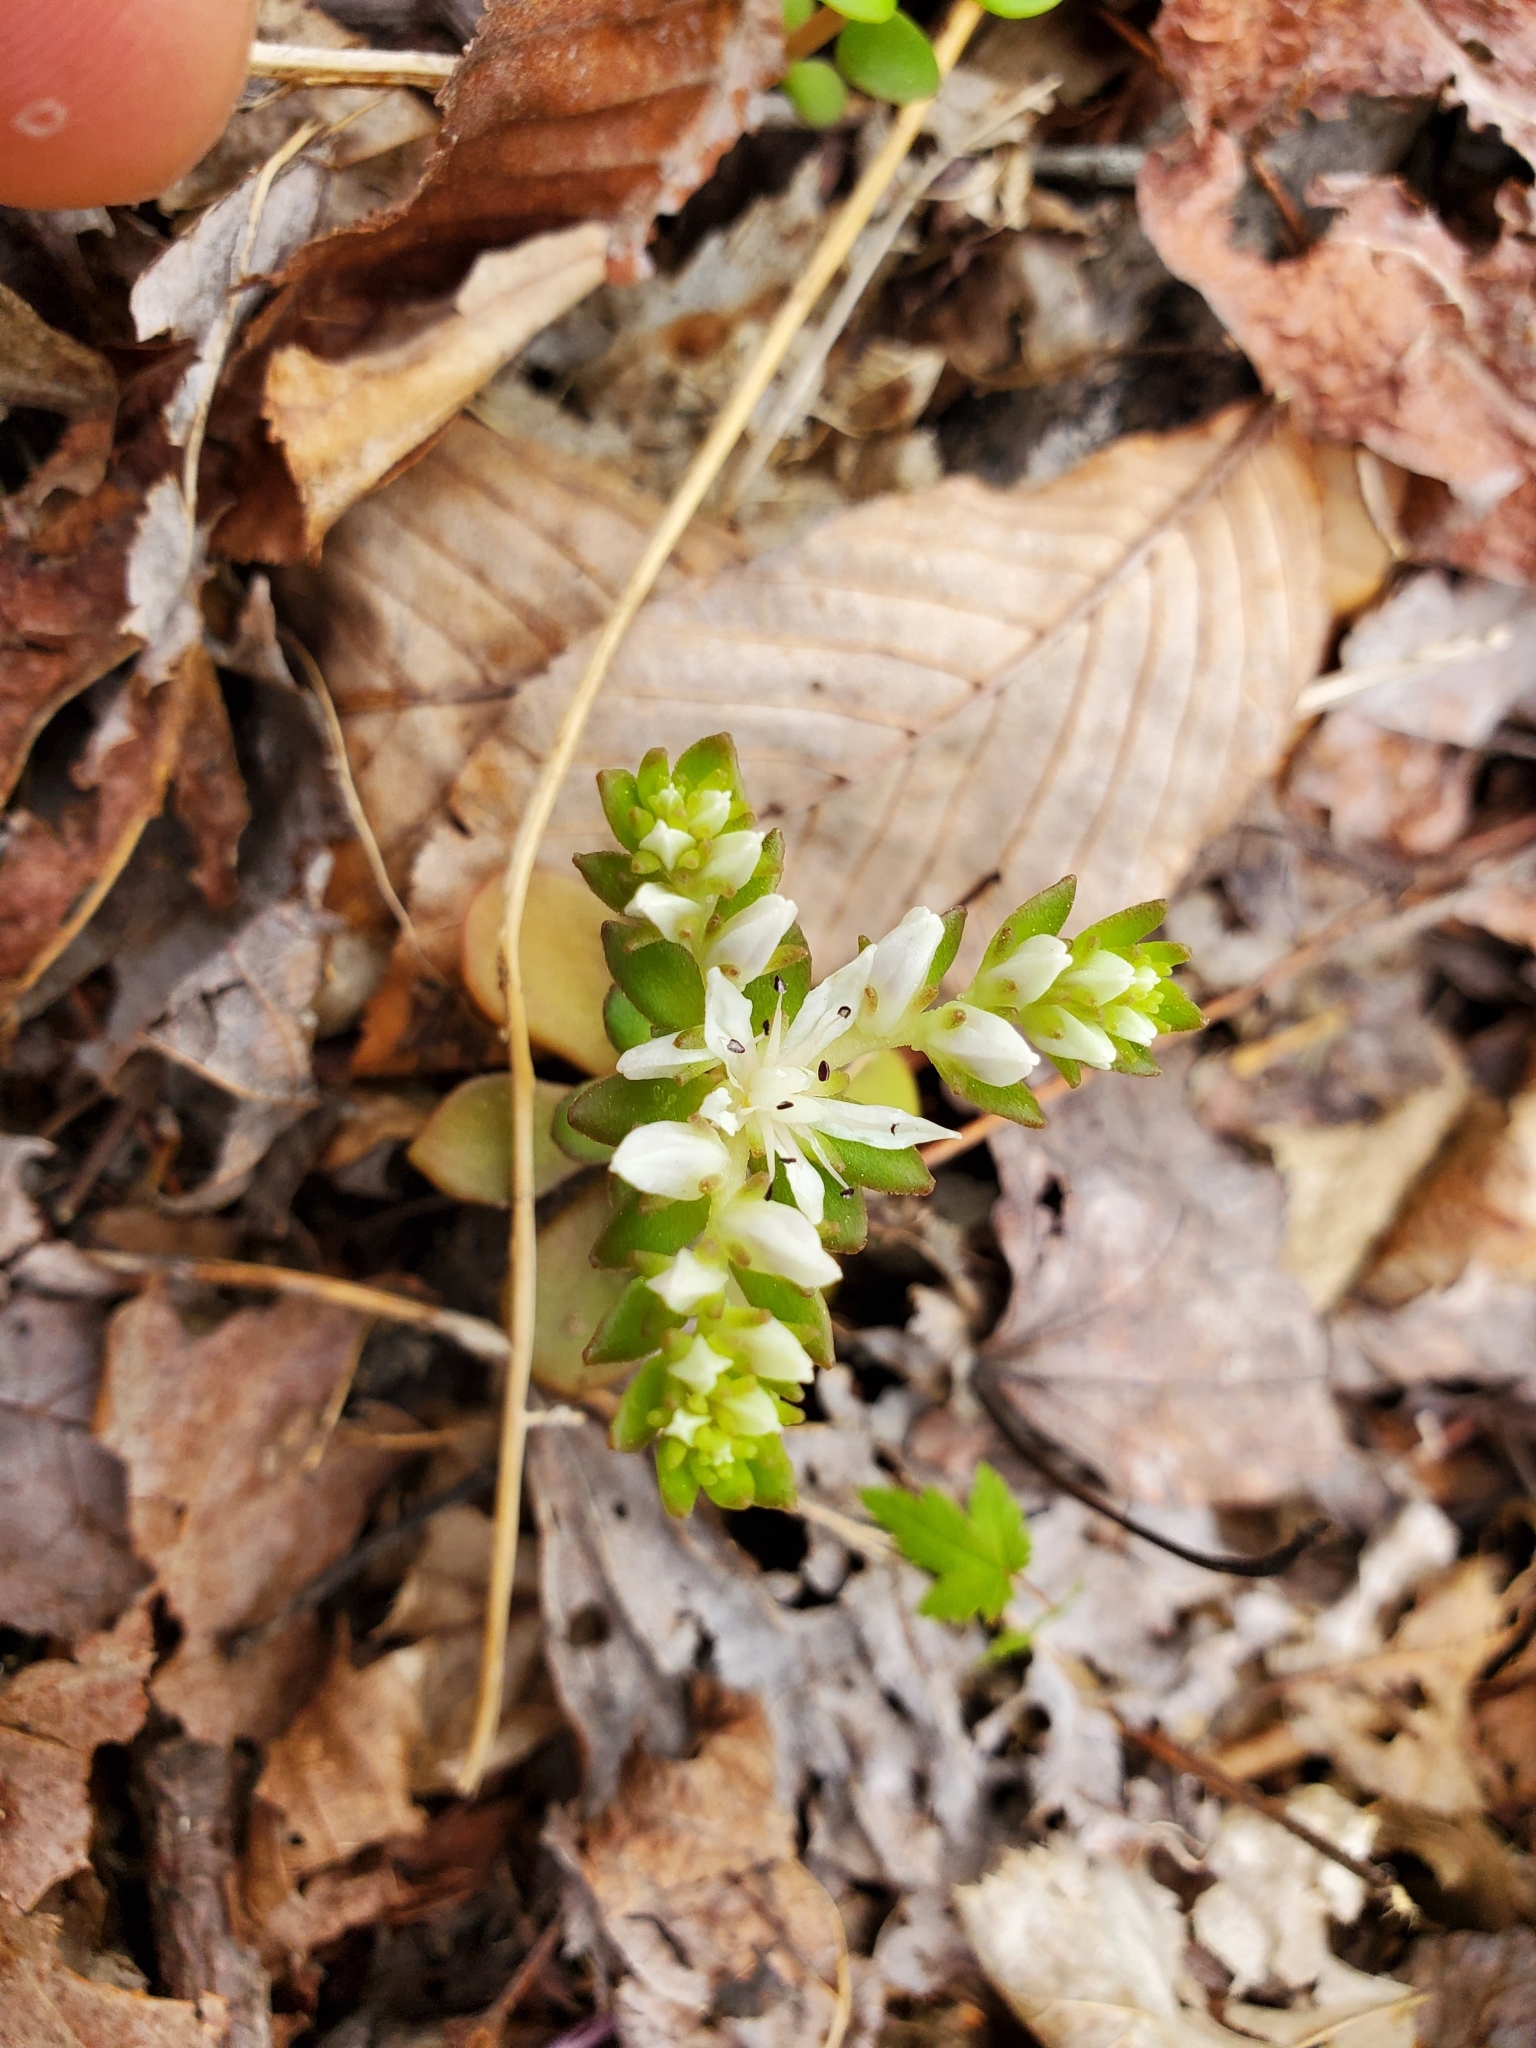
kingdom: Plantae
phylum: Tracheophyta
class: Magnoliopsida
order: Saxifragales
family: Crassulaceae
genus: Sedum
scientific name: Sedum ternatum
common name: Wild stonecrop
